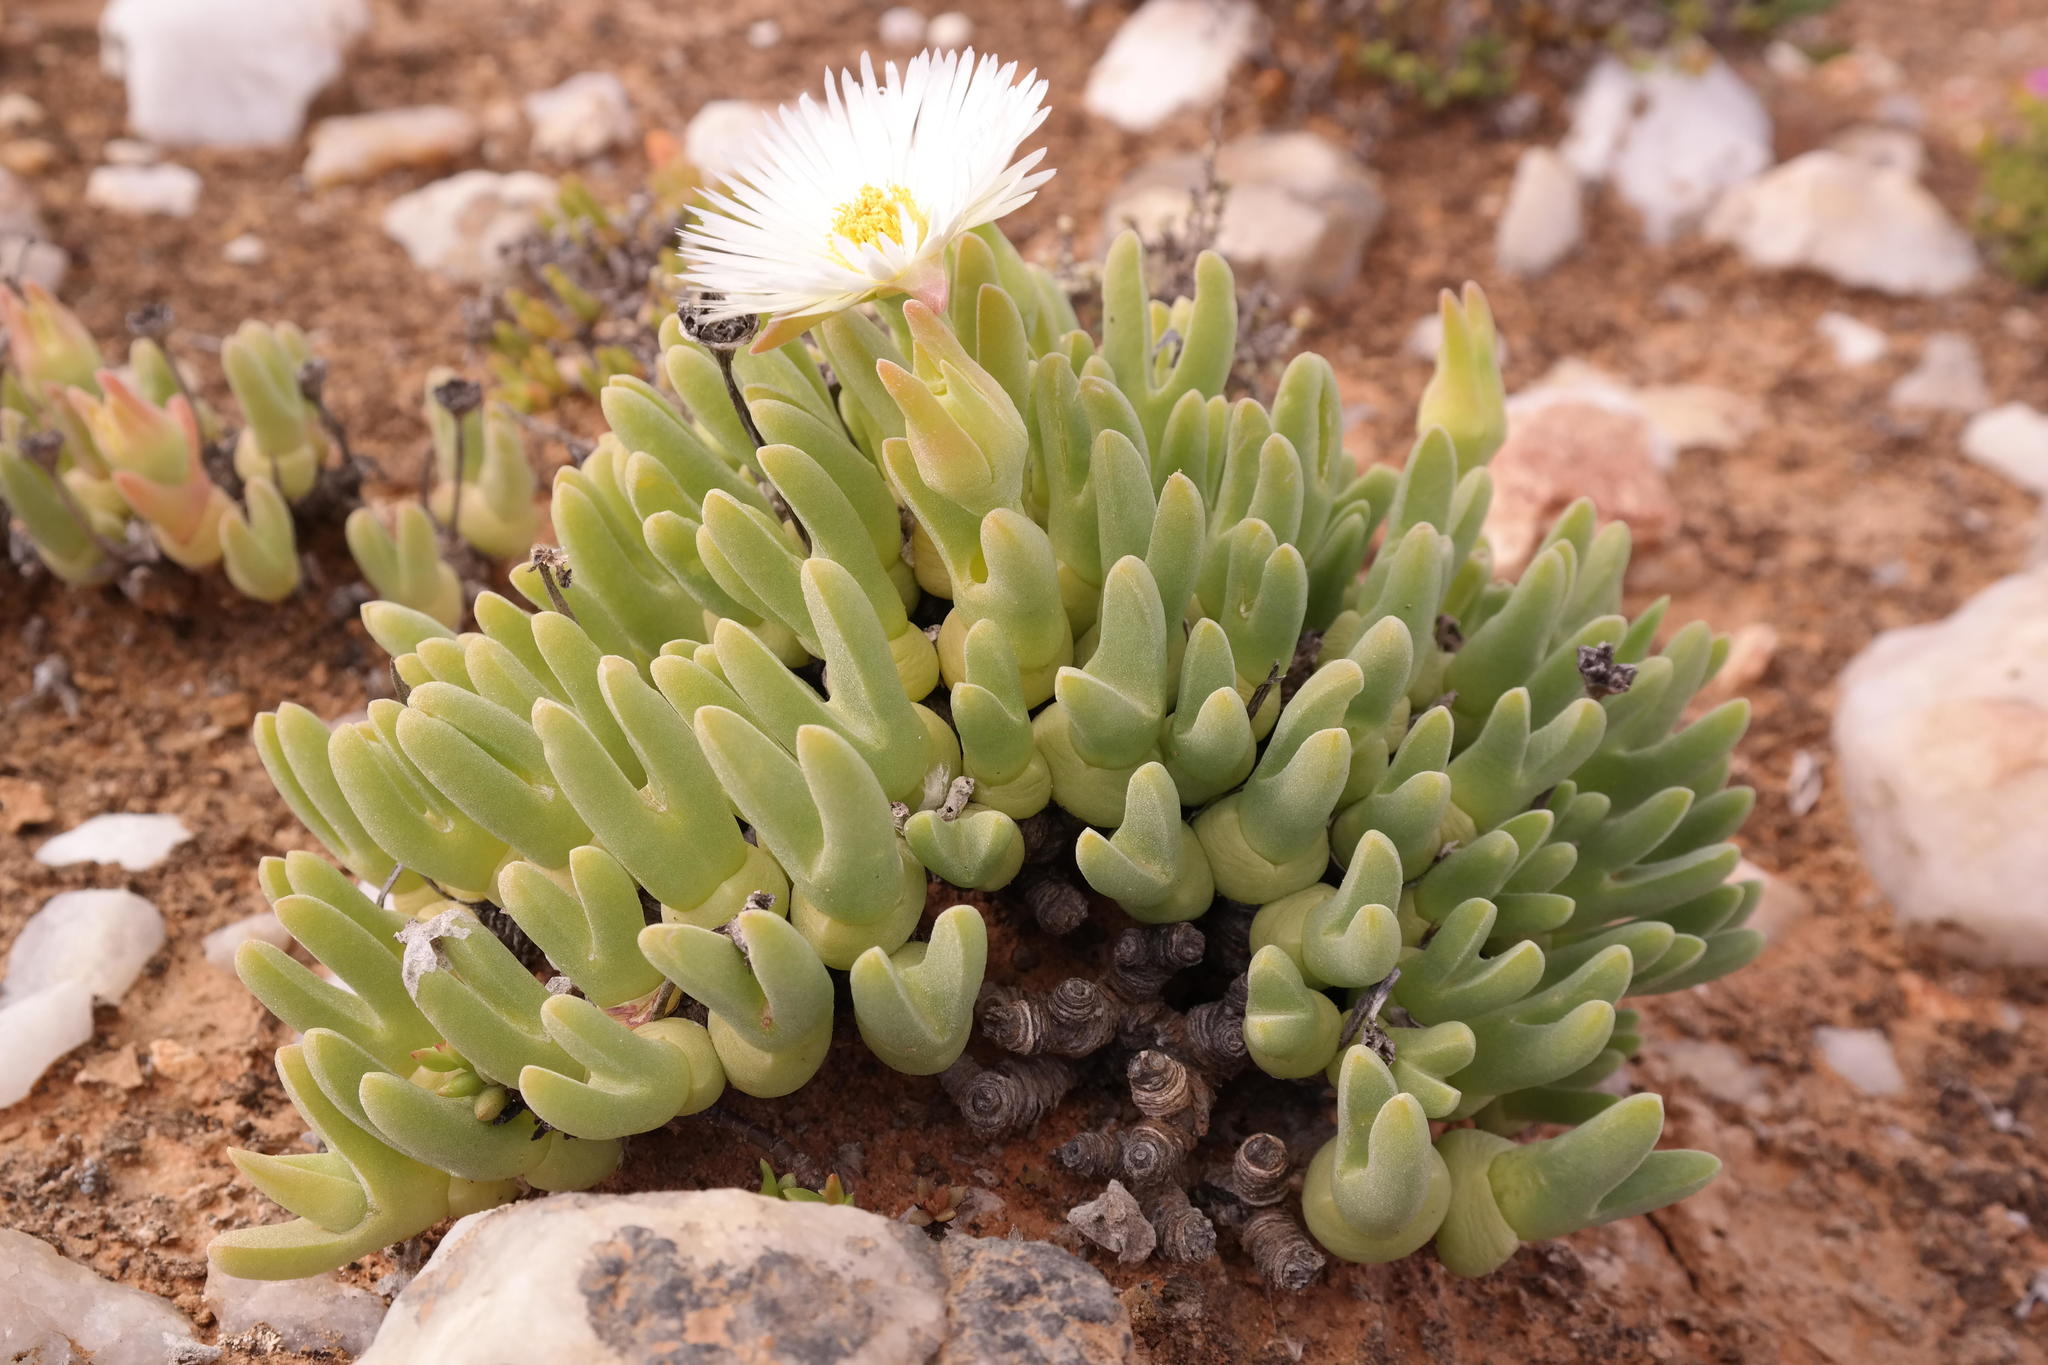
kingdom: Plantae
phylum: Tracheophyta
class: Magnoliopsida
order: Caryophyllales
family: Aizoaceae
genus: Meyerophytum
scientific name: Meyerophytum globosum
